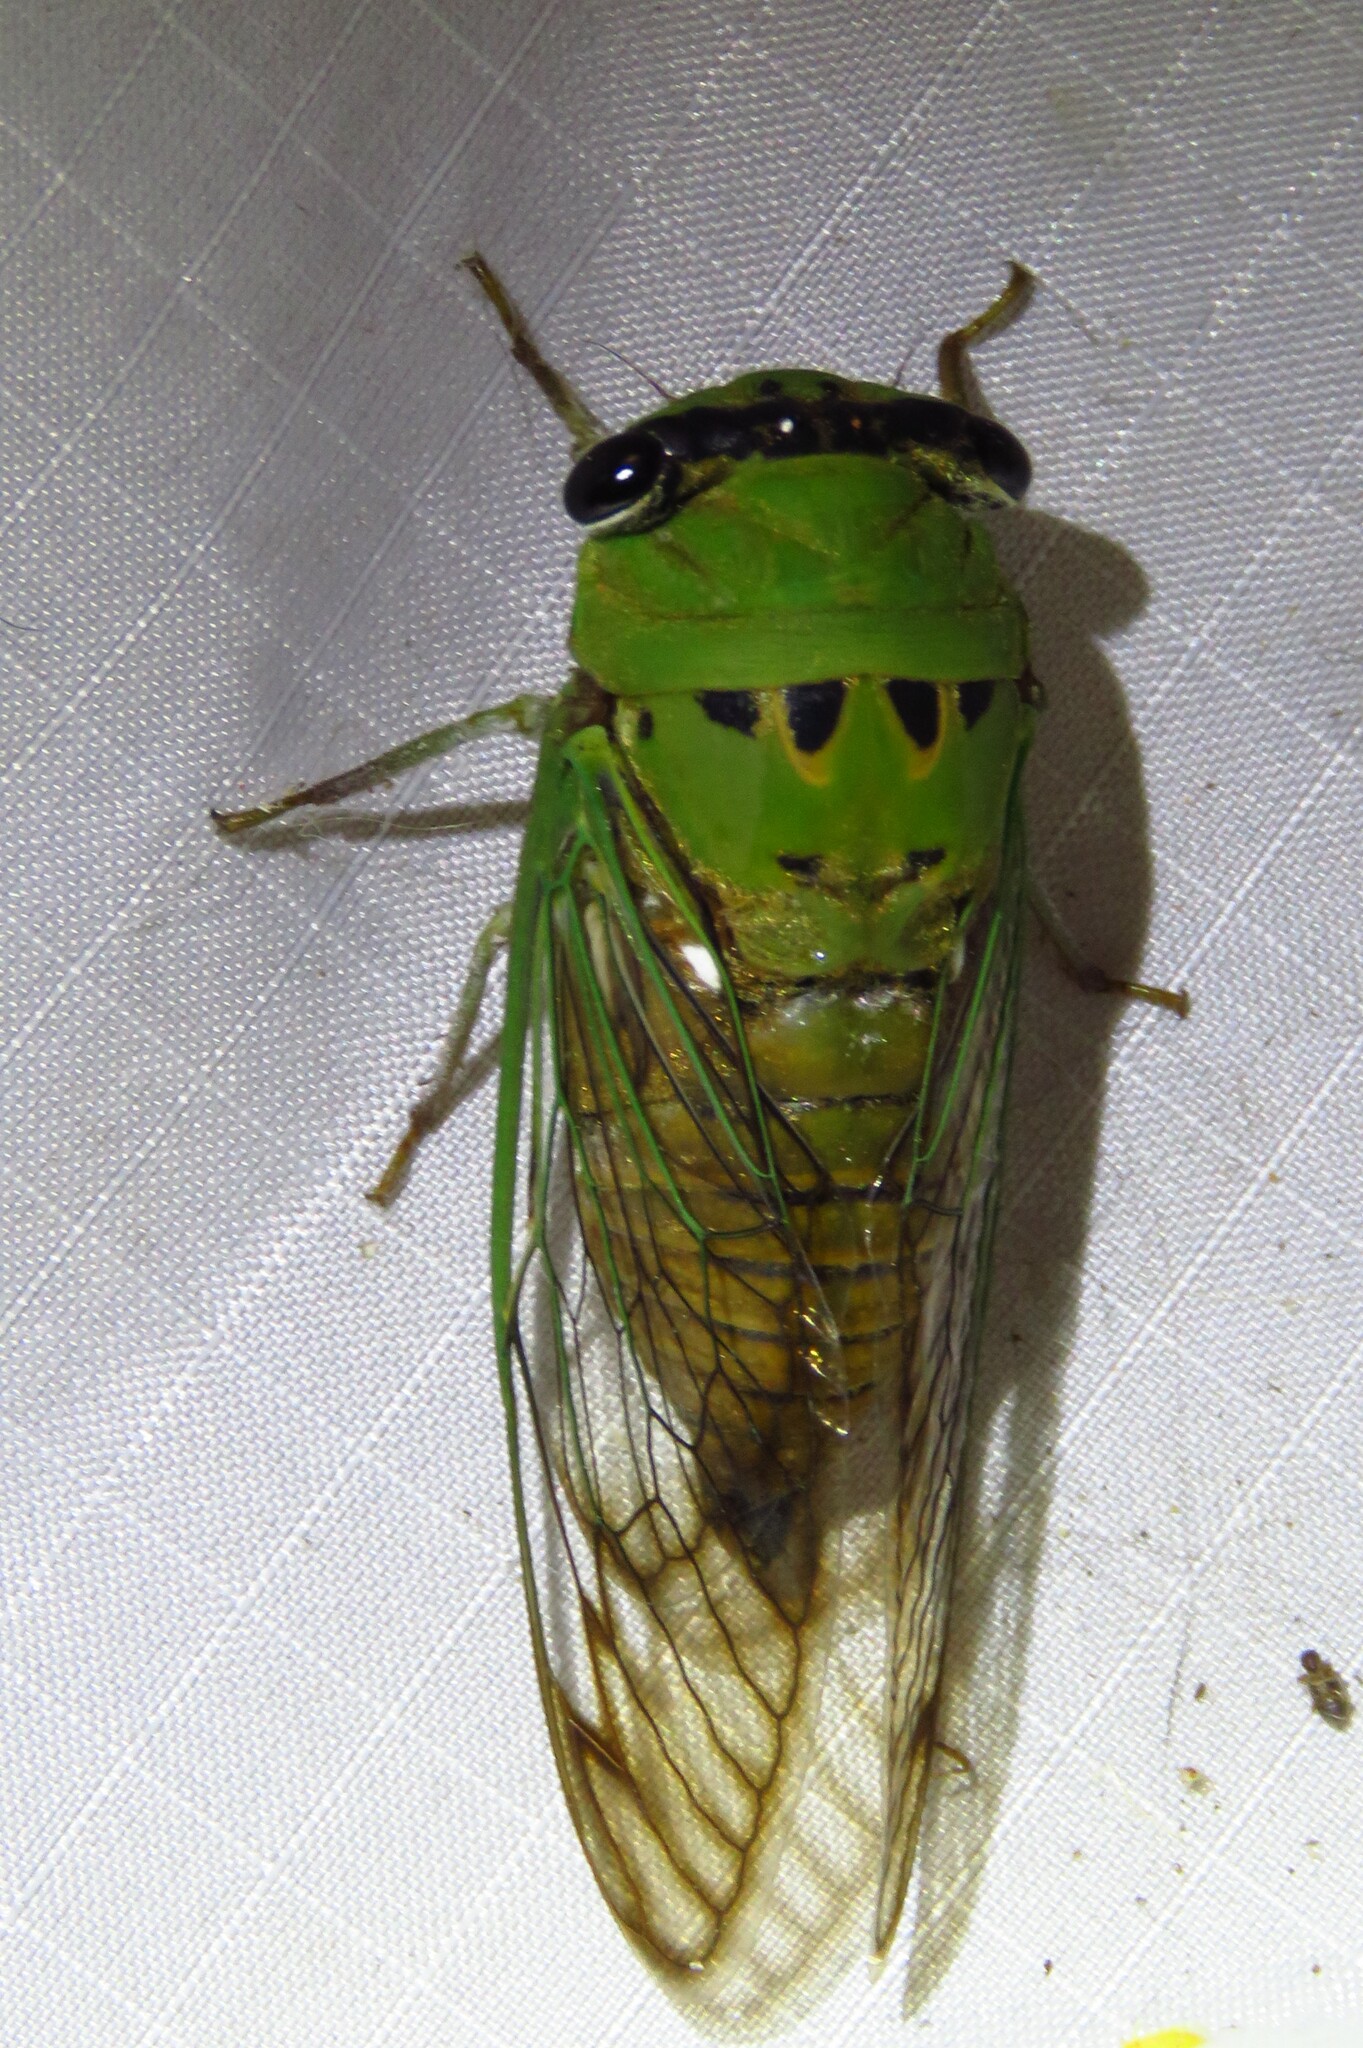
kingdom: Animalia
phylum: Arthropoda
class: Insecta
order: Hemiptera
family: Cicadidae
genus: Neotibicen
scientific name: Neotibicen superbus
